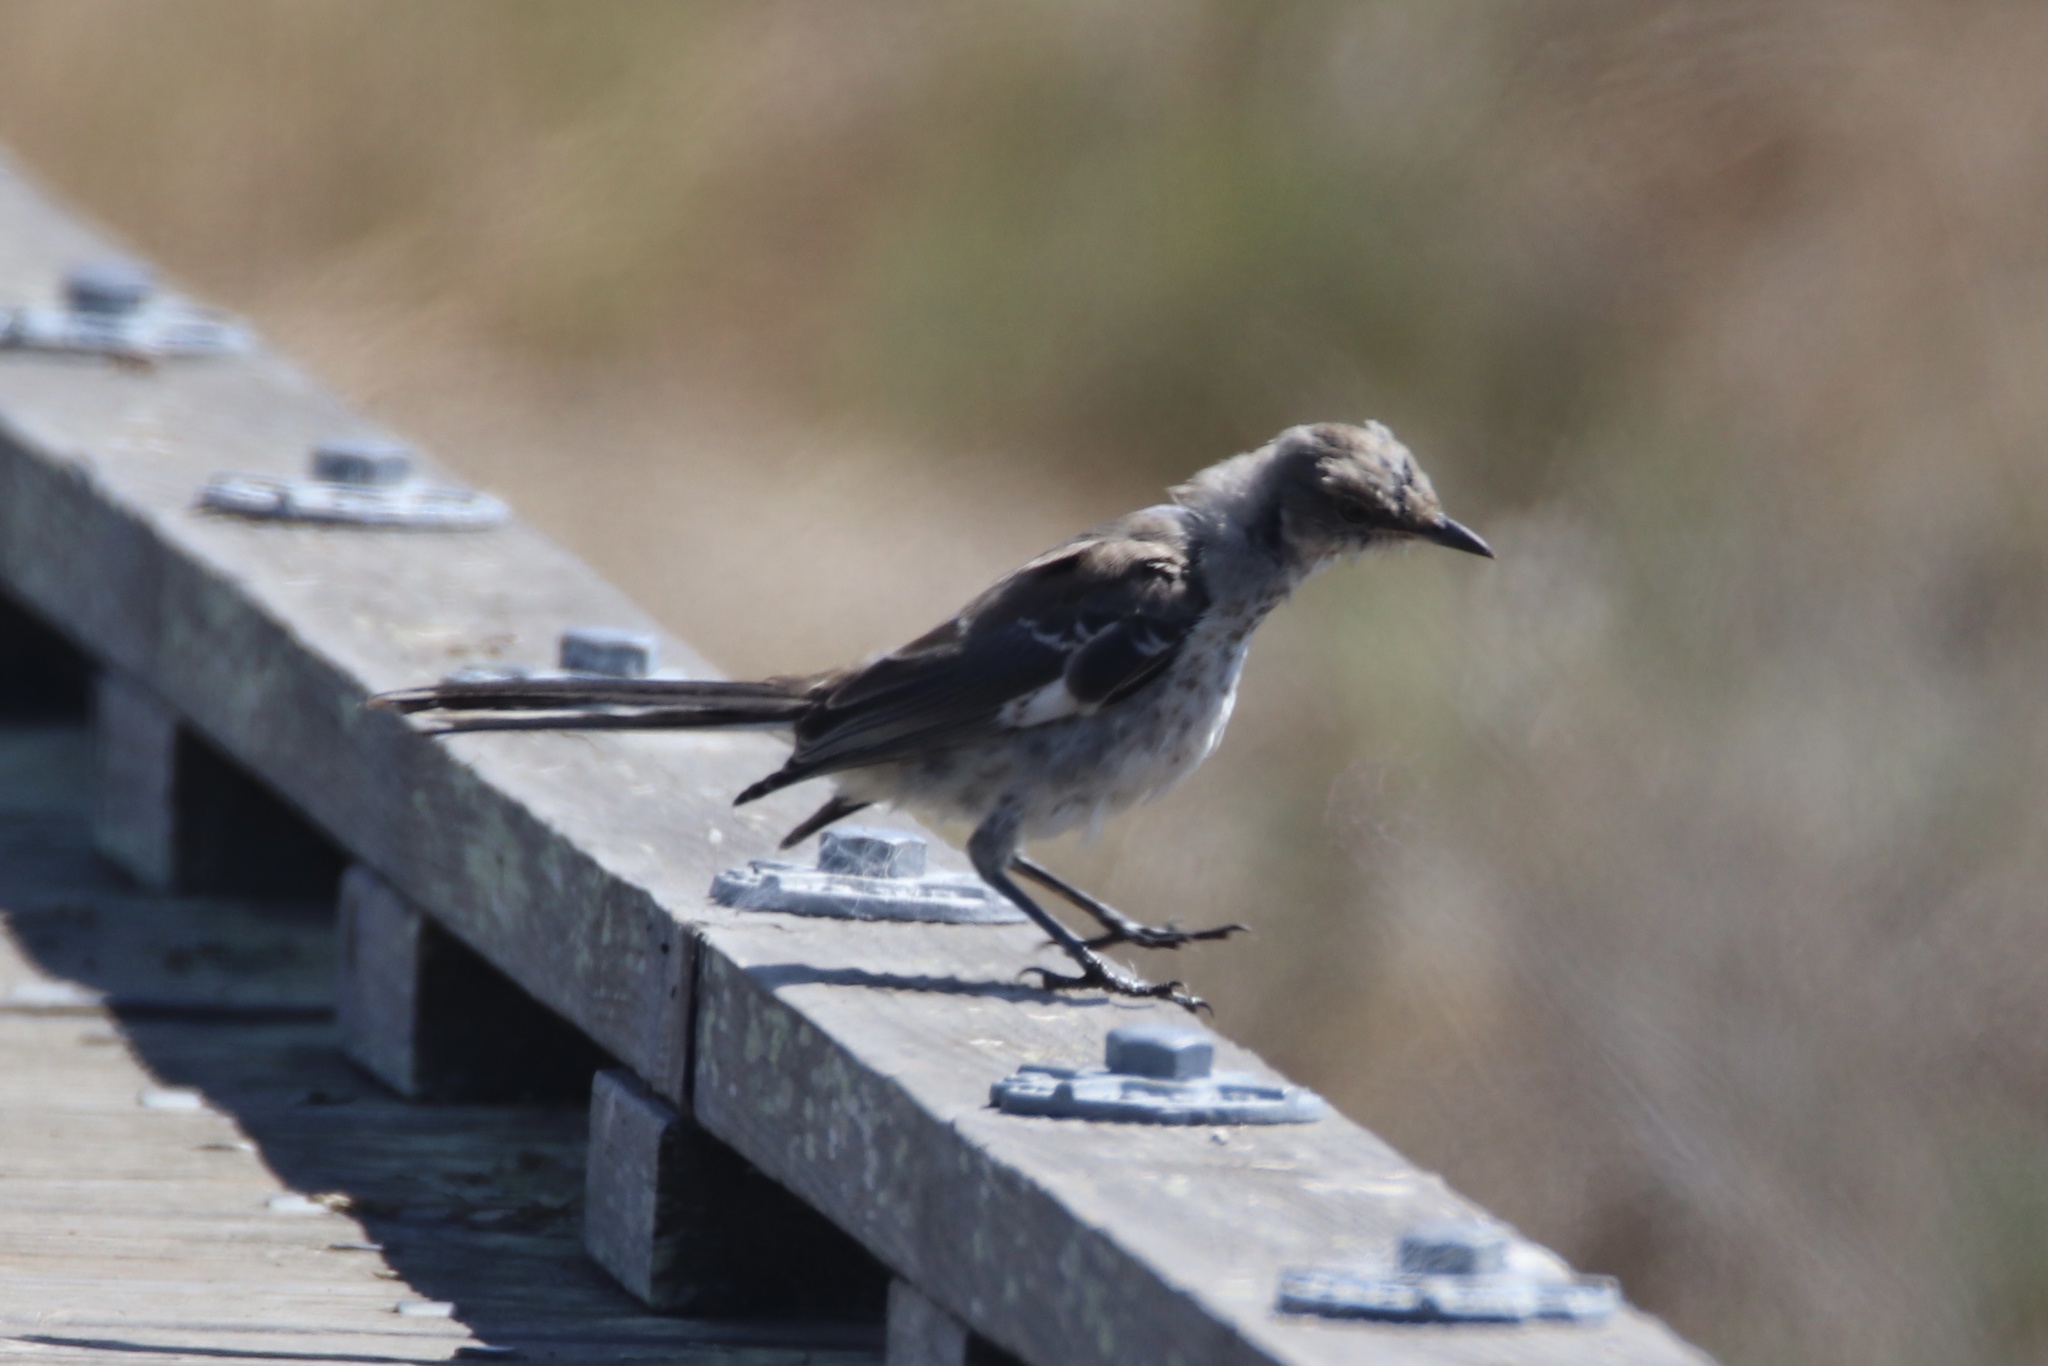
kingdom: Animalia
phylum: Chordata
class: Aves
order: Passeriformes
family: Mimidae
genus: Mimus
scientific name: Mimus polyglottos
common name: Northern mockingbird
